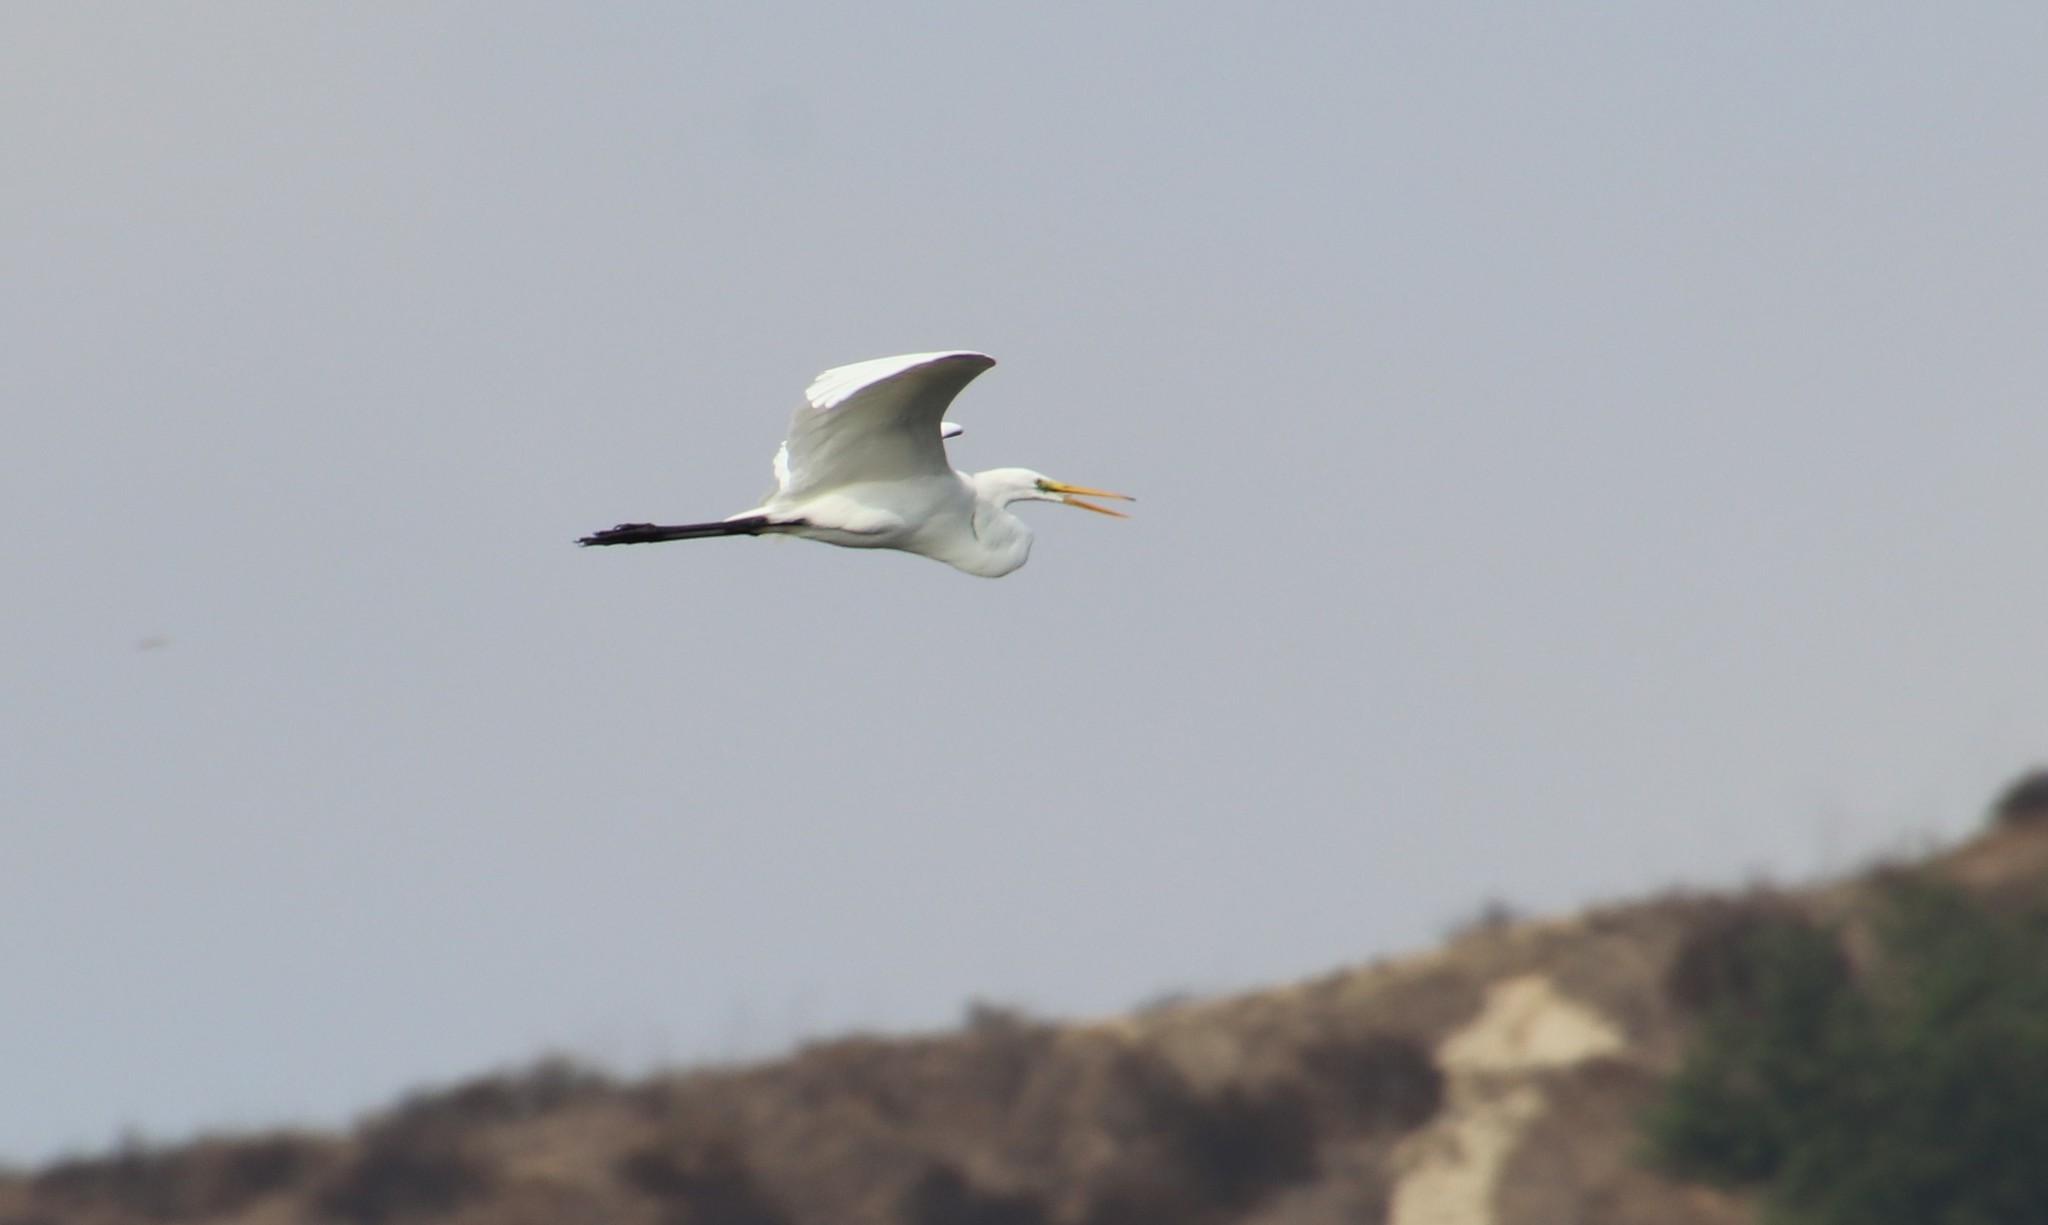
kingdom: Animalia
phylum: Chordata
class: Aves
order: Pelecaniformes
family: Ardeidae
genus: Ardea
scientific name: Ardea alba
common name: Great egret
